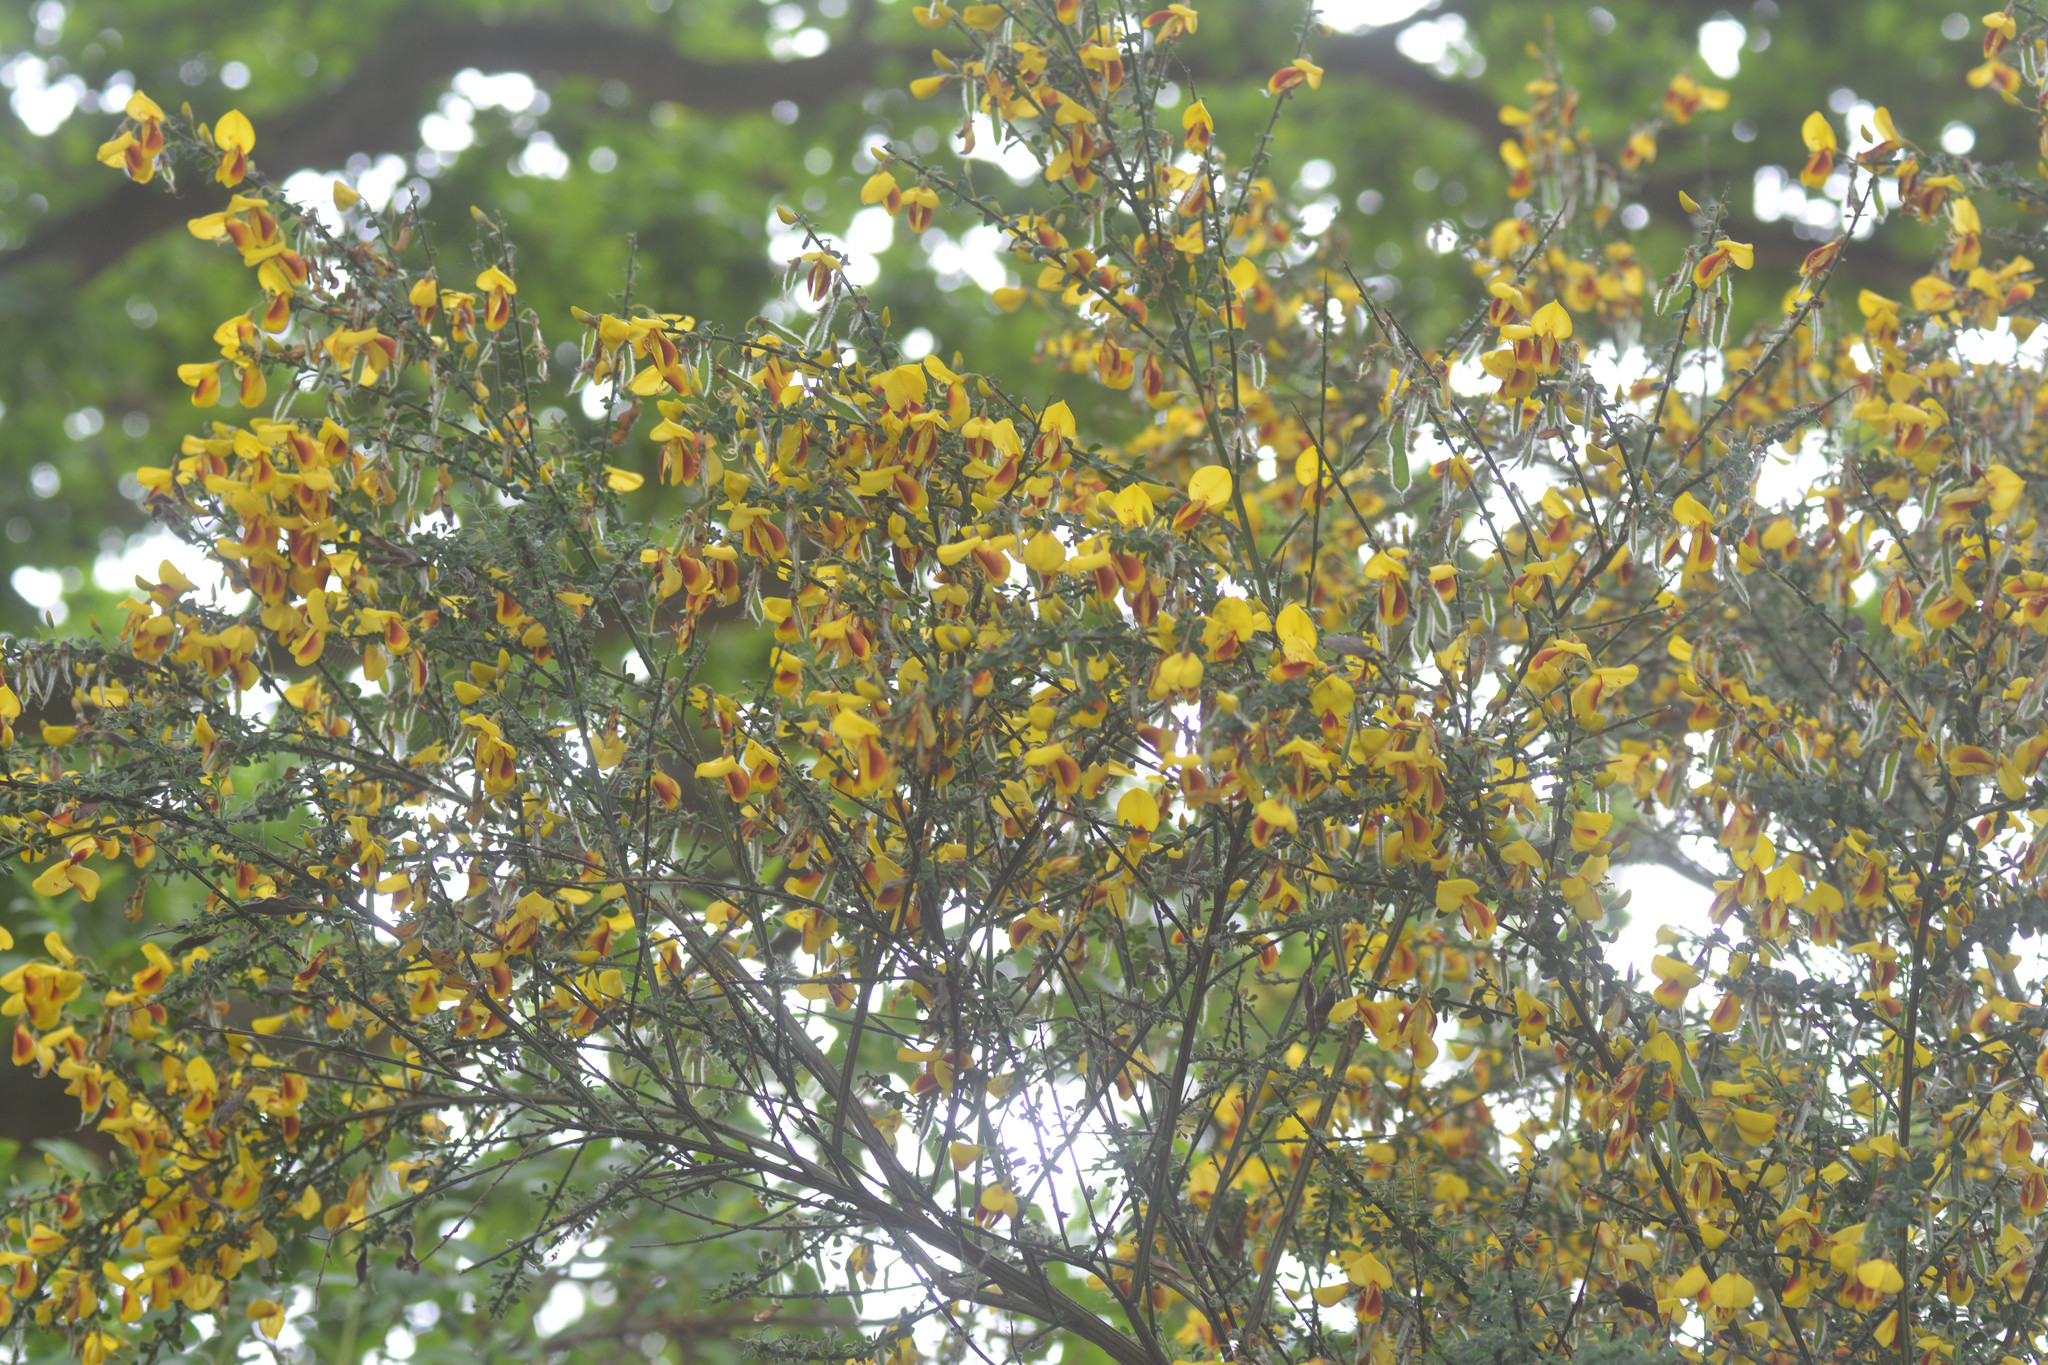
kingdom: Plantae
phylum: Tracheophyta
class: Magnoliopsida
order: Fabales
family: Fabaceae
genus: Cytisus
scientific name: Cytisus scoparius
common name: Scotch broom
